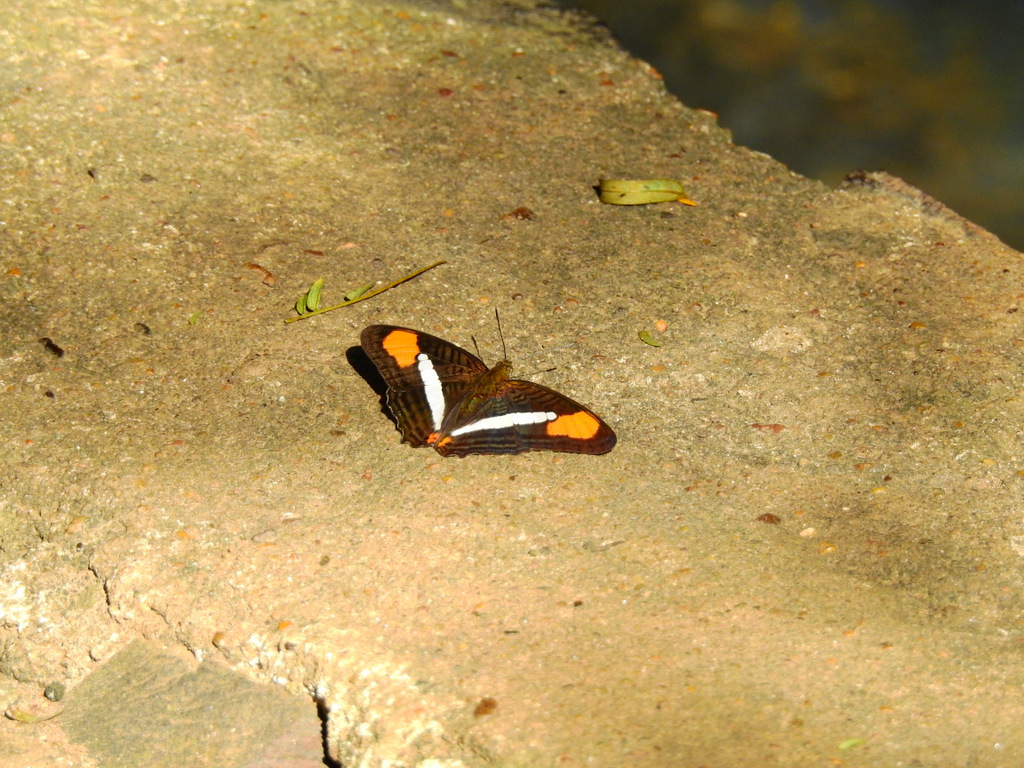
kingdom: Animalia
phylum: Arthropoda
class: Insecta
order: Lepidoptera
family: Nymphalidae
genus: Limenitis
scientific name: Limenitis thessalia
